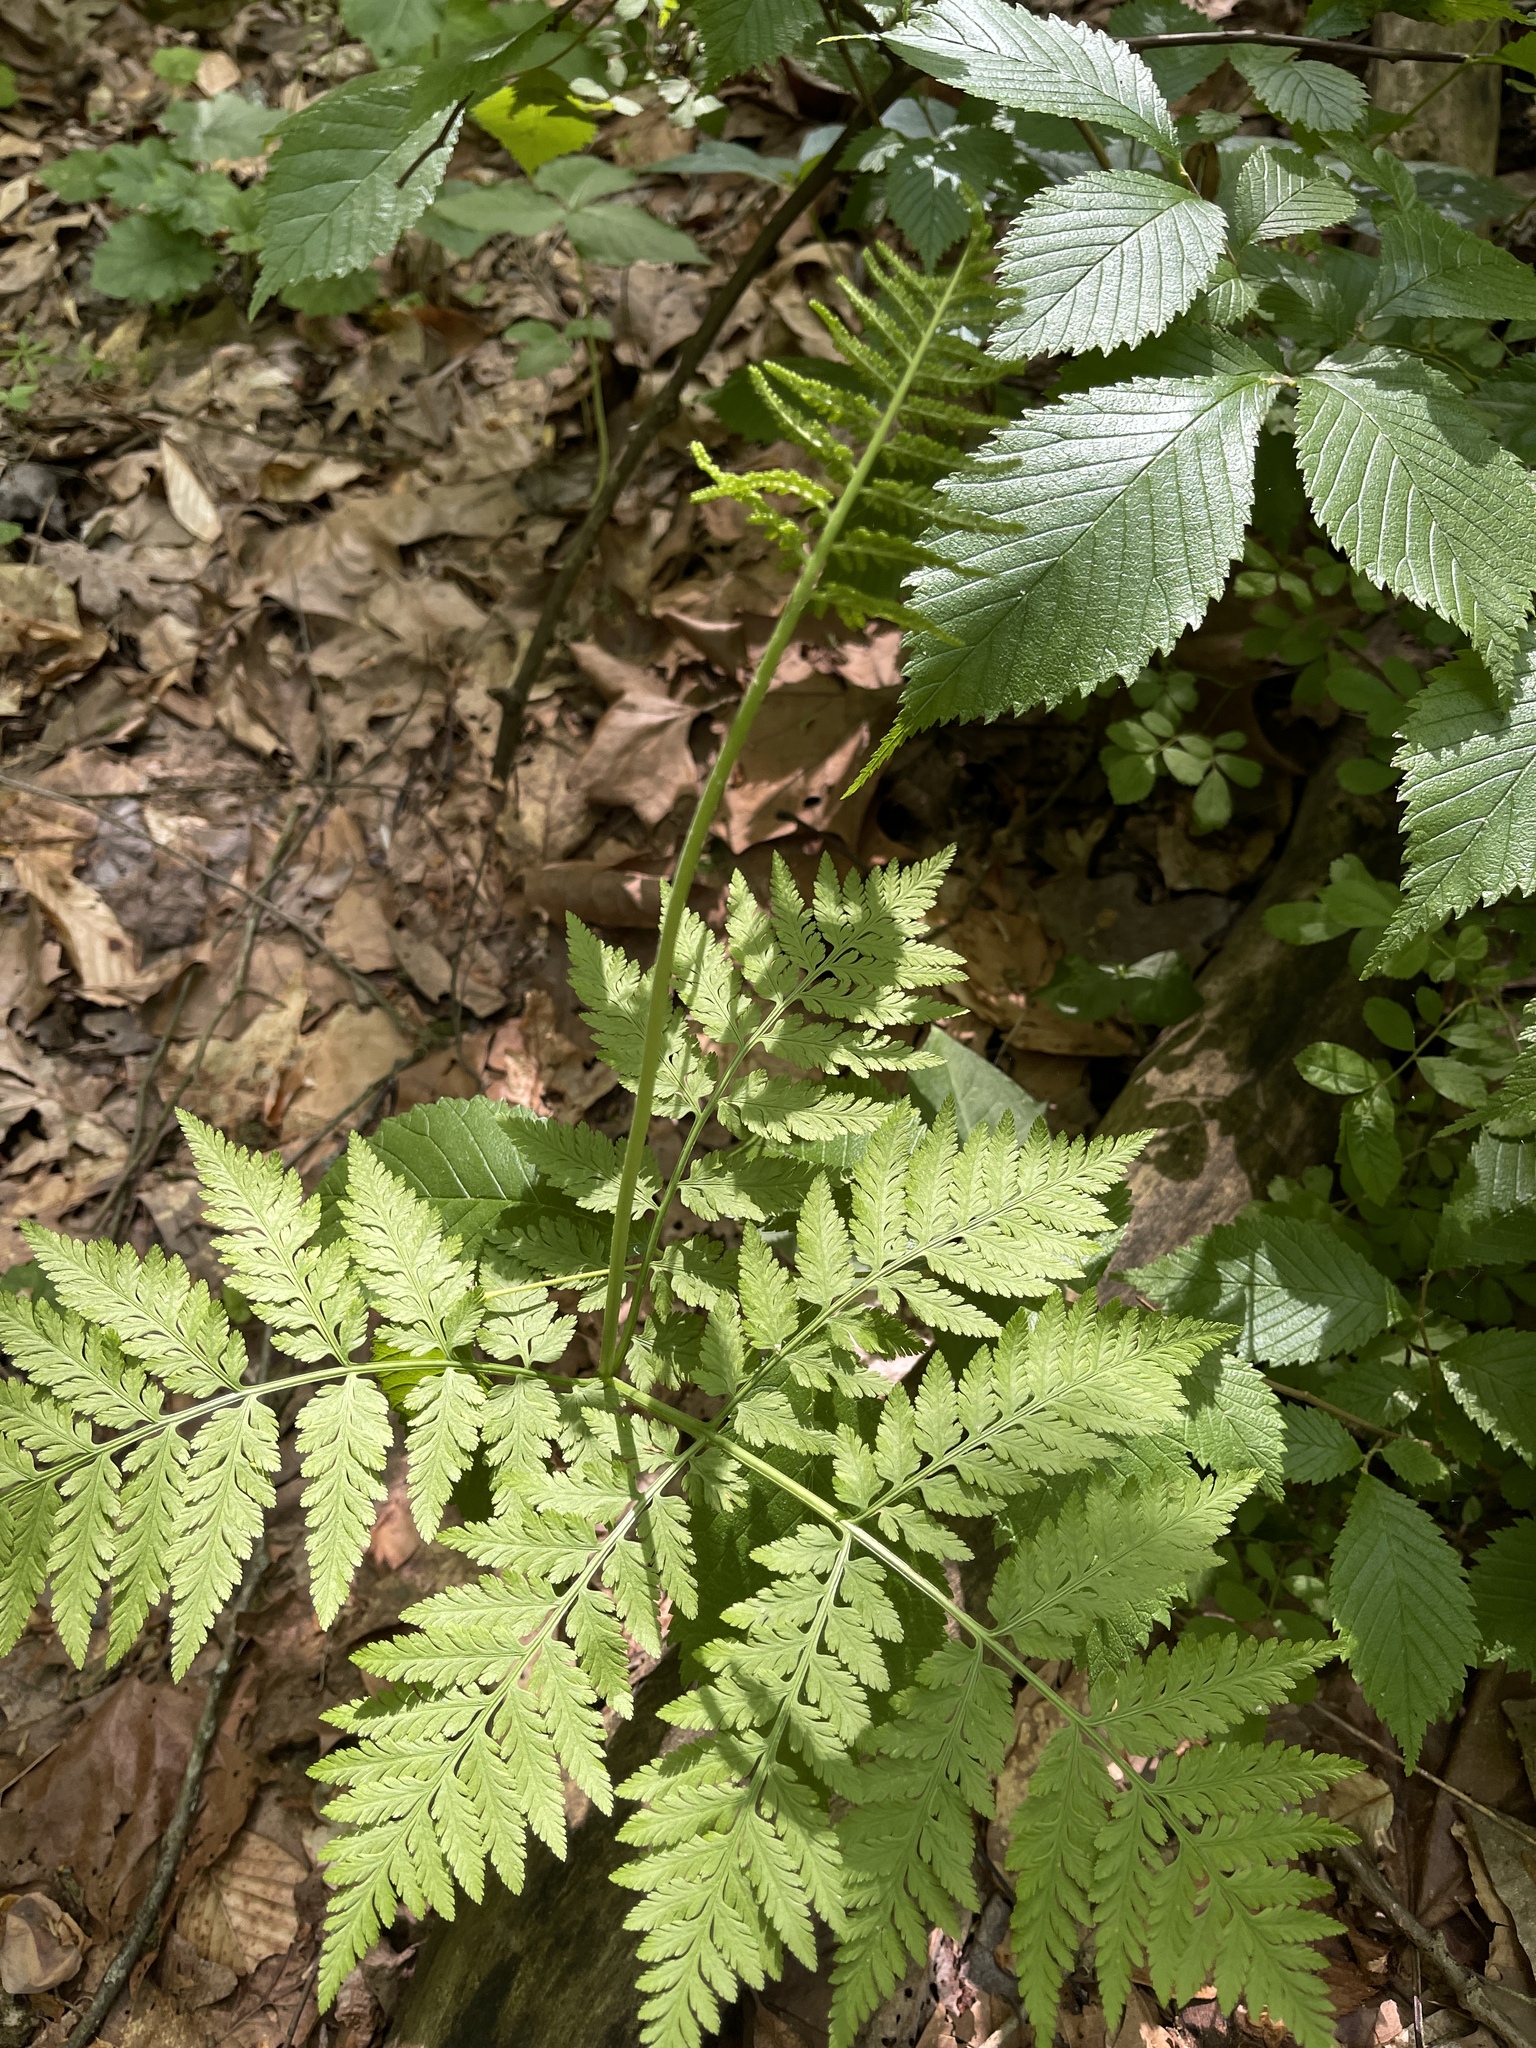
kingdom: Plantae
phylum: Tracheophyta
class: Polypodiopsida
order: Ophioglossales
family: Ophioglossaceae
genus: Botrypus
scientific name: Botrypus virginianus
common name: Common grapefern
